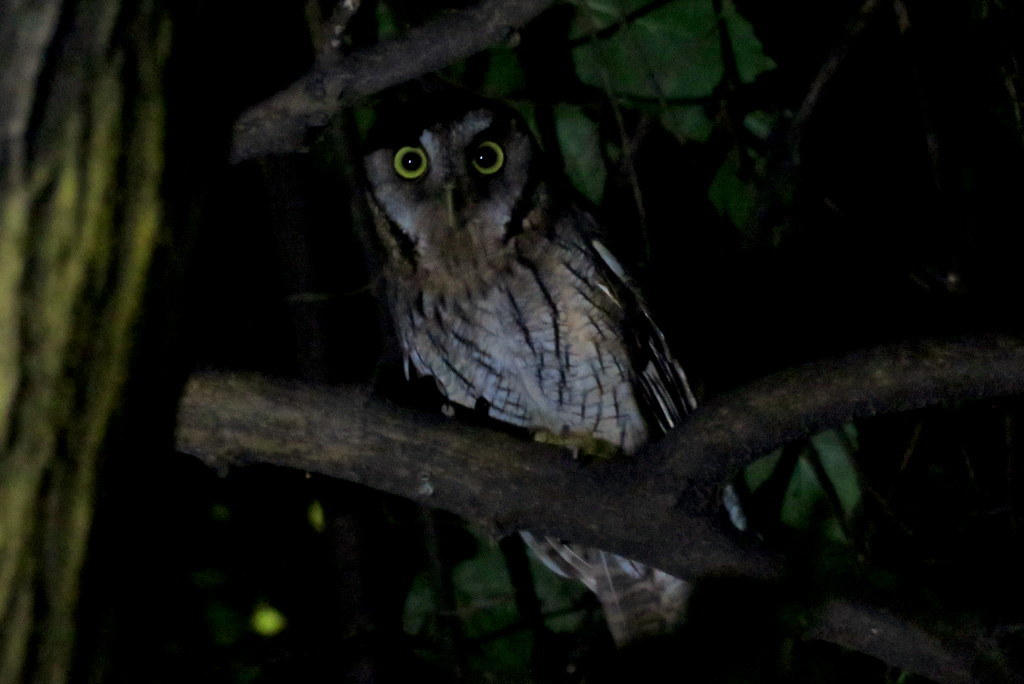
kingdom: Animalia
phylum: Chordata
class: Aves
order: Strigiformes
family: Strigidae
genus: Megascops
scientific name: Megascops choliba
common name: Tropical screech-owl
